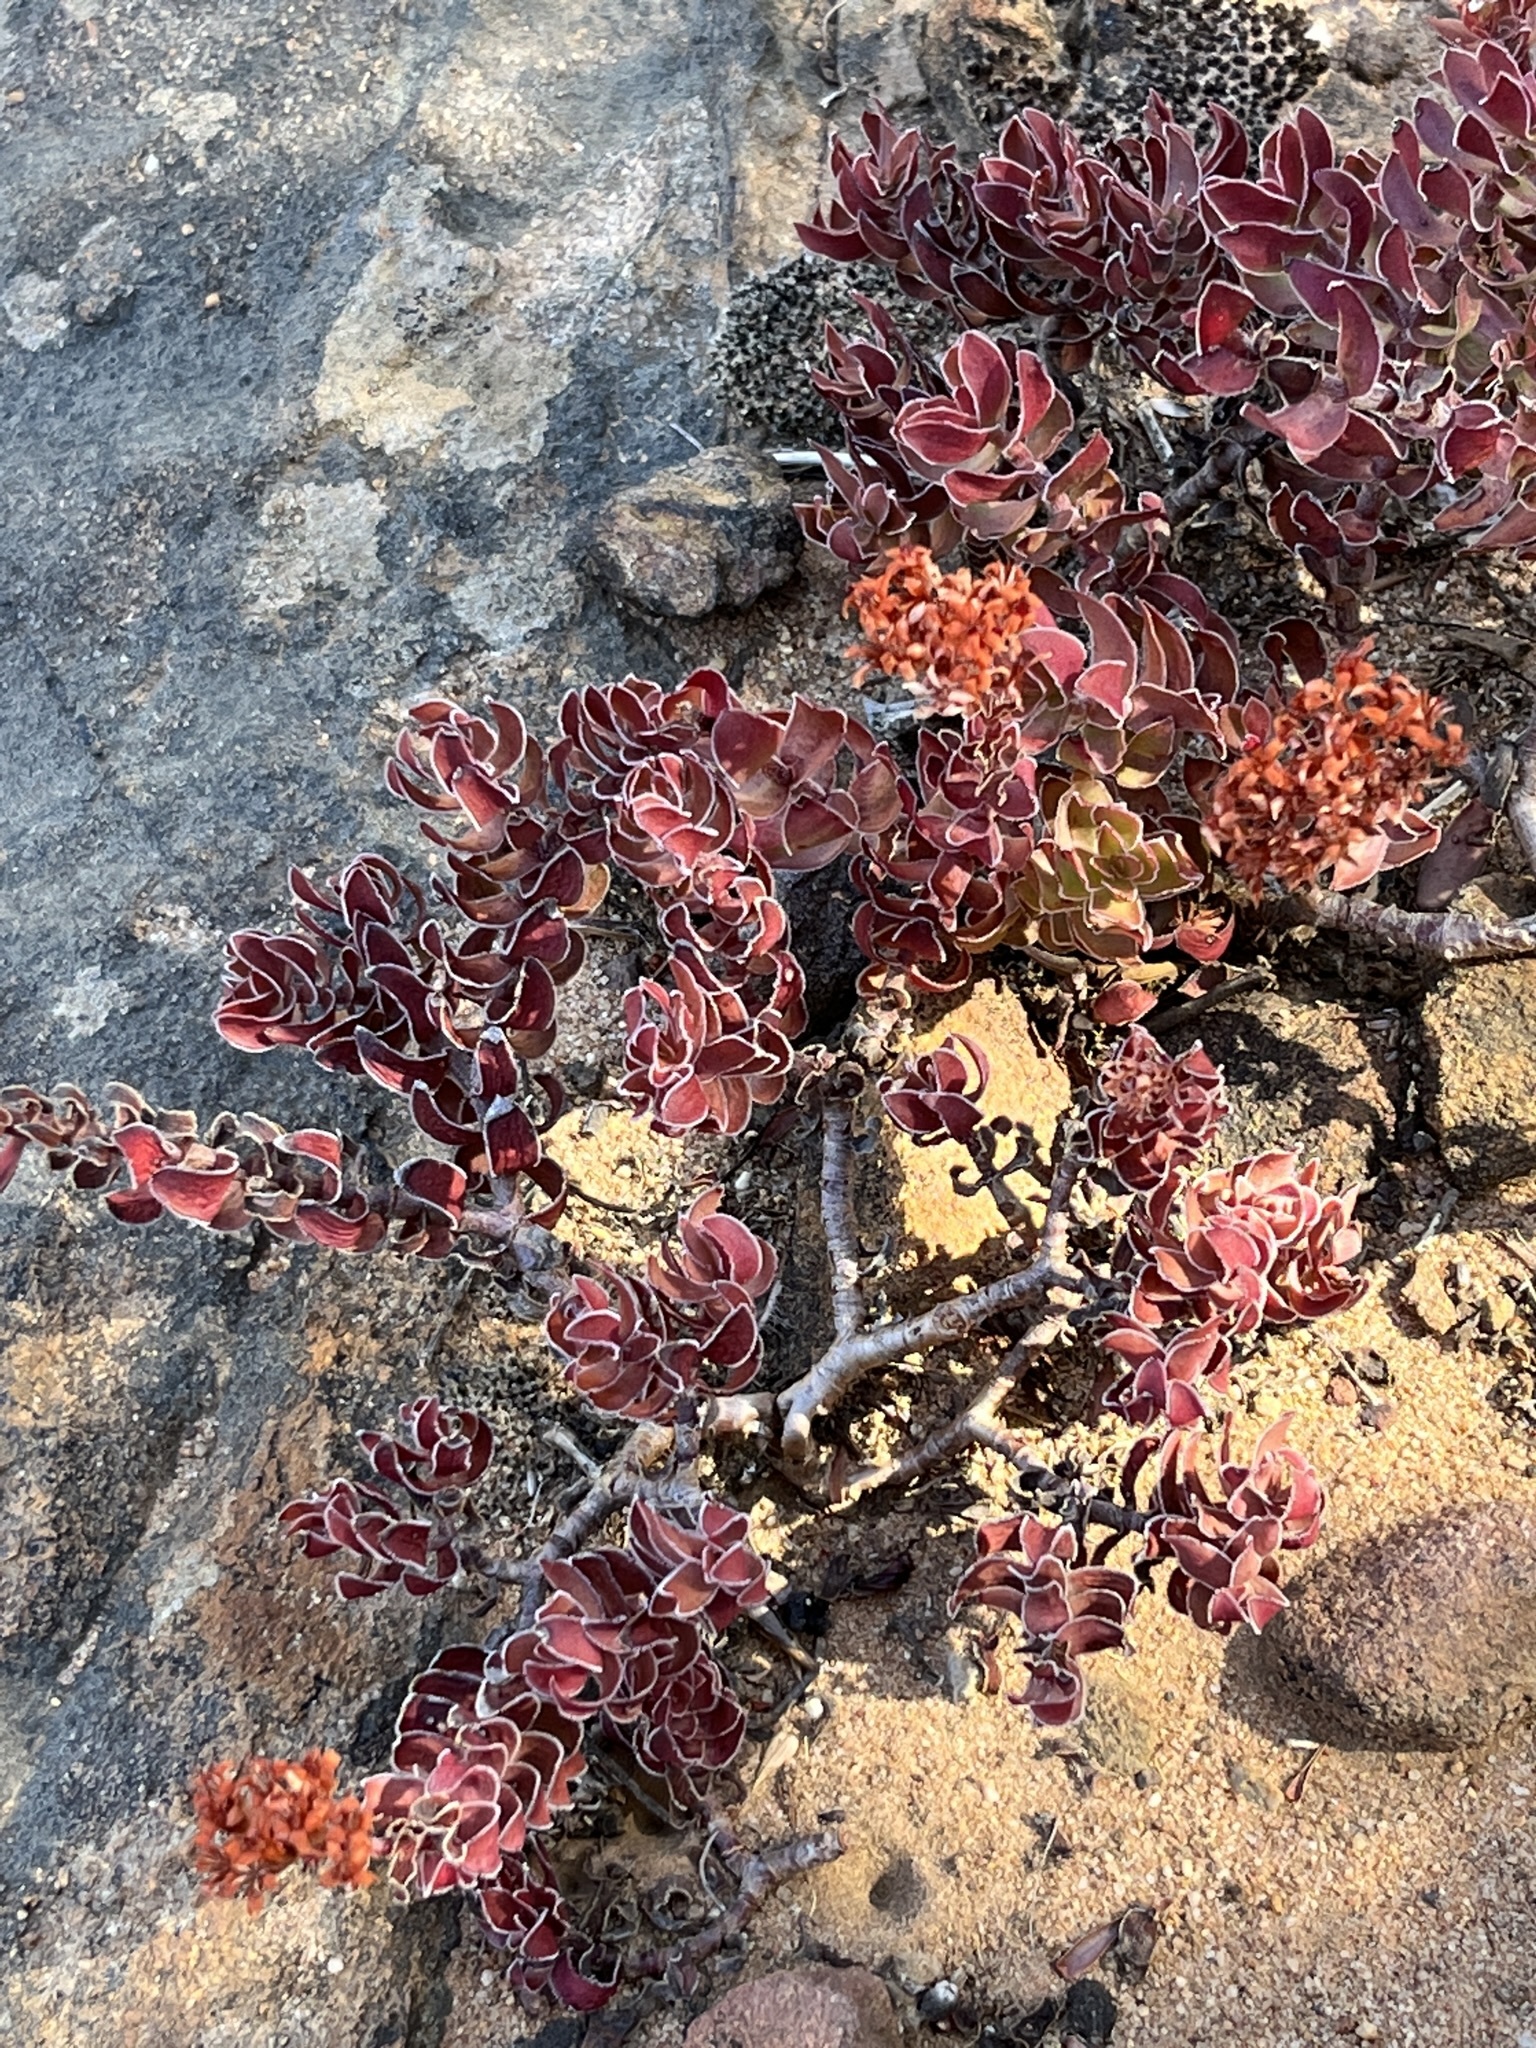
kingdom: Plantae
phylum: Tracheophyta
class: Magnoliopsida
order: Saxifragales
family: Crassulaceae
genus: Crassula
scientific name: Crassula undulata
